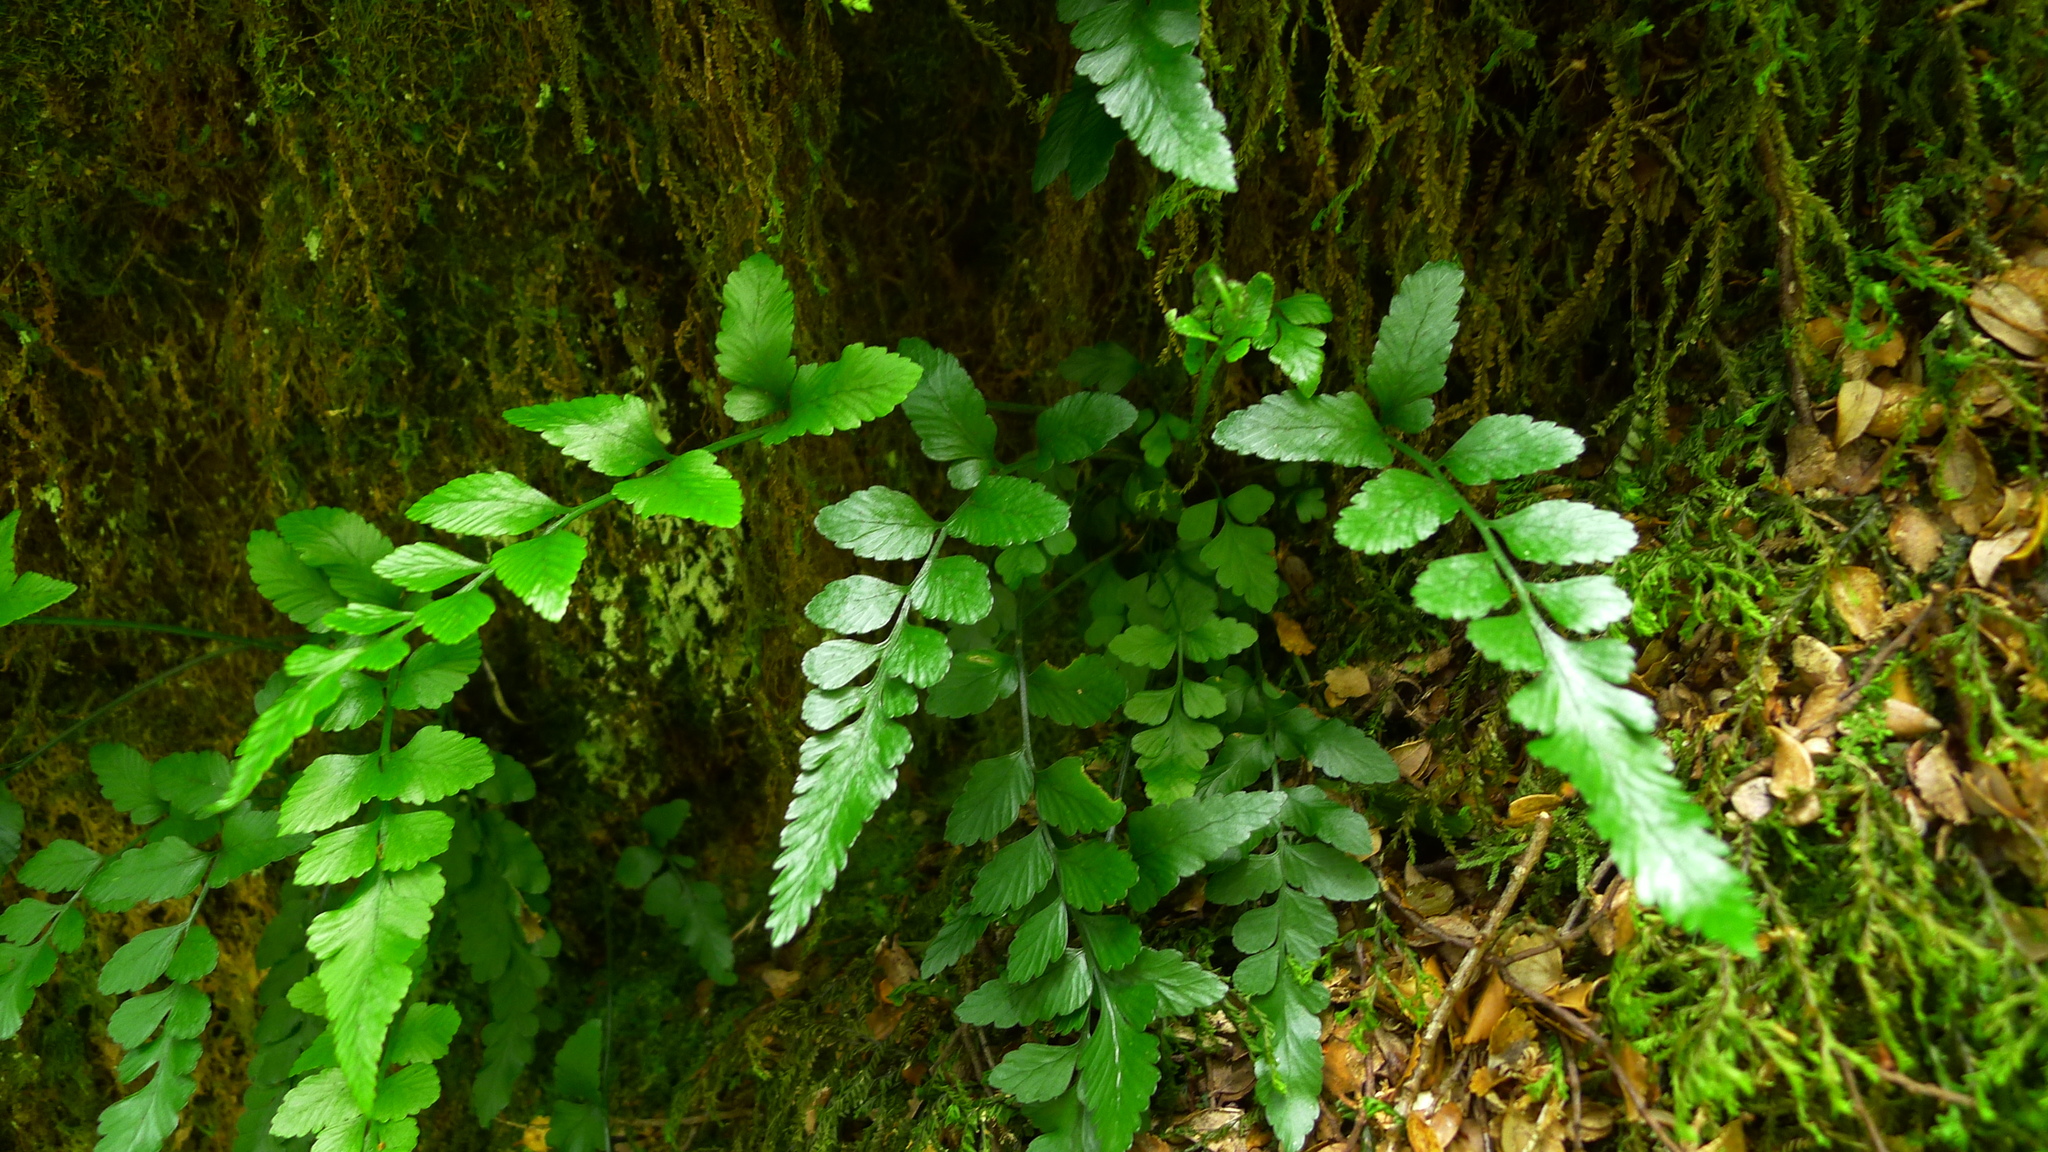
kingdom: Plantae
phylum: Tracheophyta
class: Polypodiopsida
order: Polypodiales
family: Aspleniaceae
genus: Asplenium
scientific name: Asplenium lyallii
